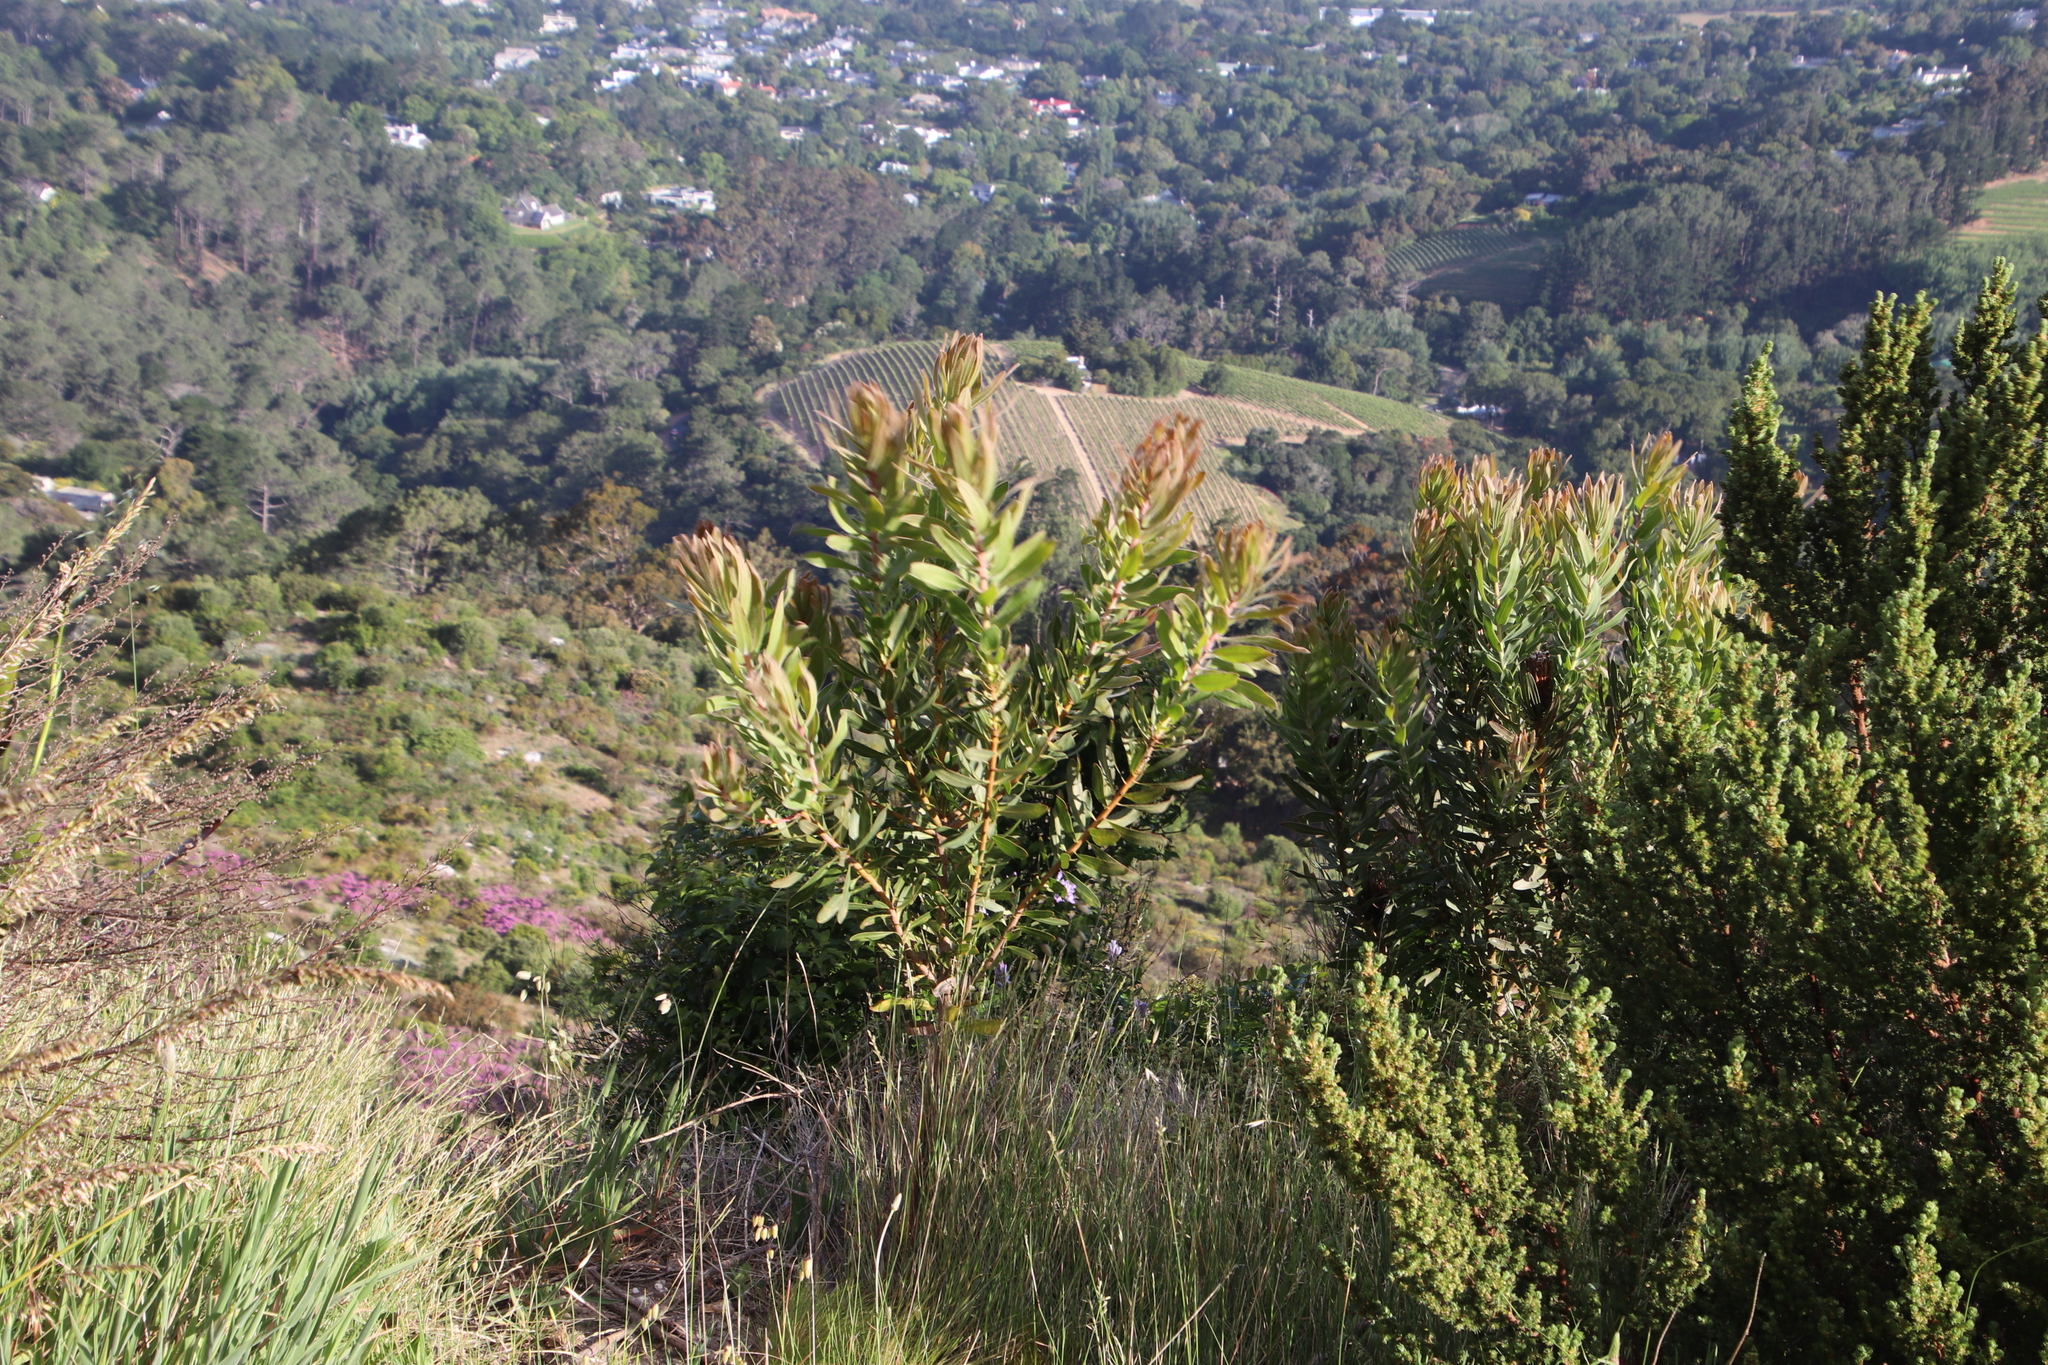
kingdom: Plantae
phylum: Tracheophyta
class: Magnoliopsida
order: Proteales
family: Proteaceae
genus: Protea
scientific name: Protea lepidocarpodendron
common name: Black-bearded protea
